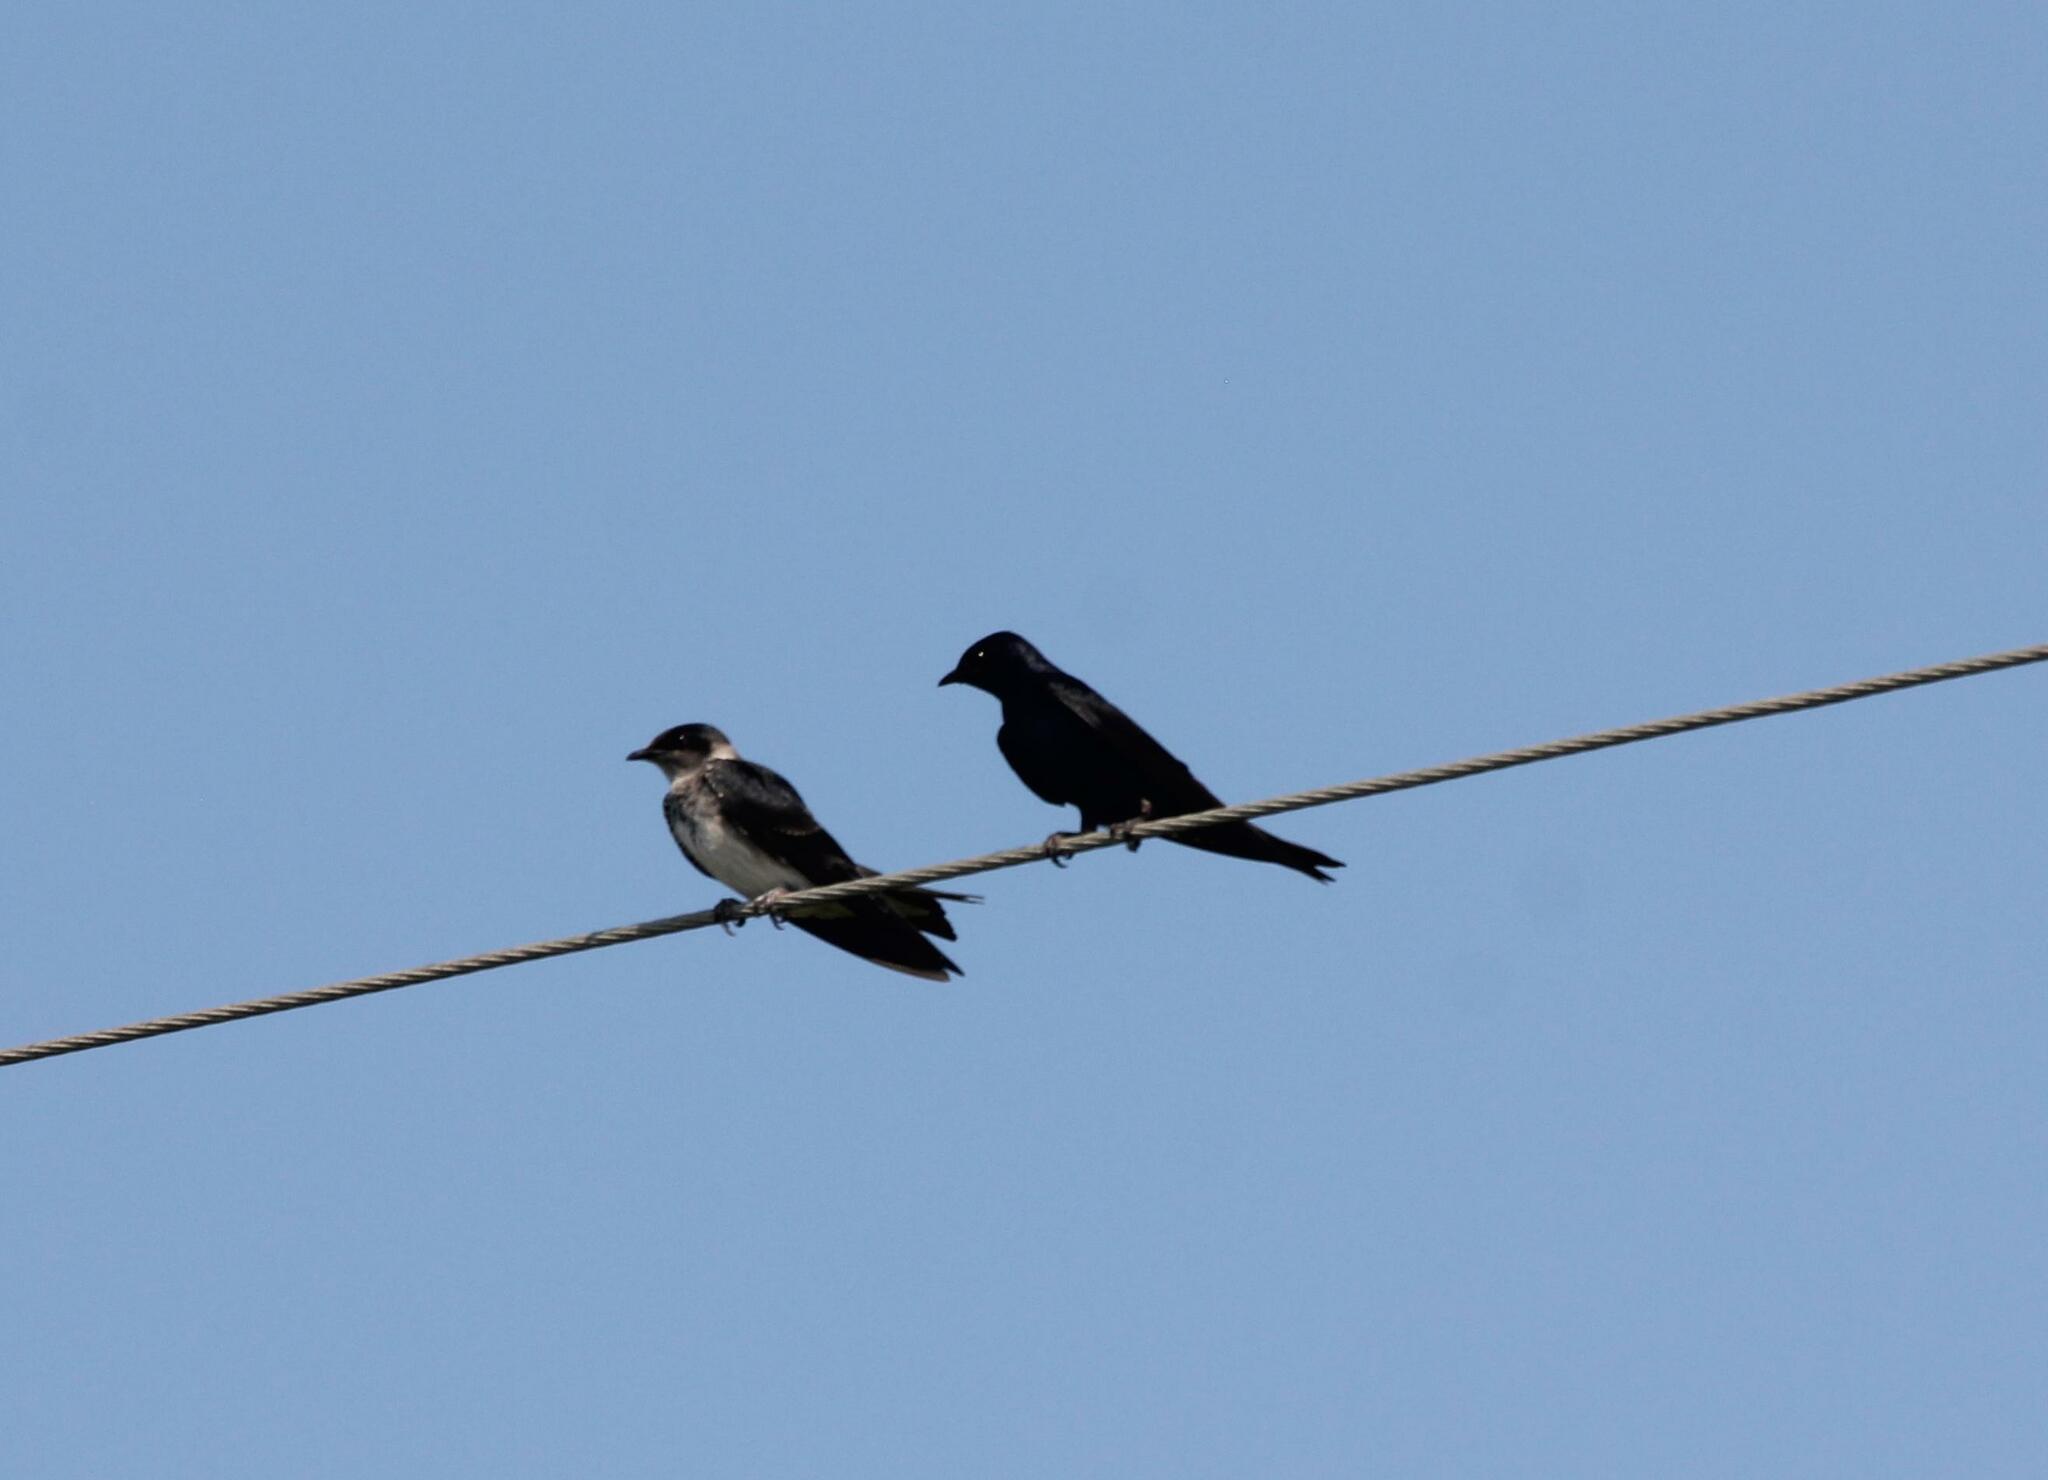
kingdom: Animalia
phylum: Chordata
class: Aves
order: Passeriformes
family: Hirundinidae
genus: Progne
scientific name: Progne subis
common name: Purple martin
